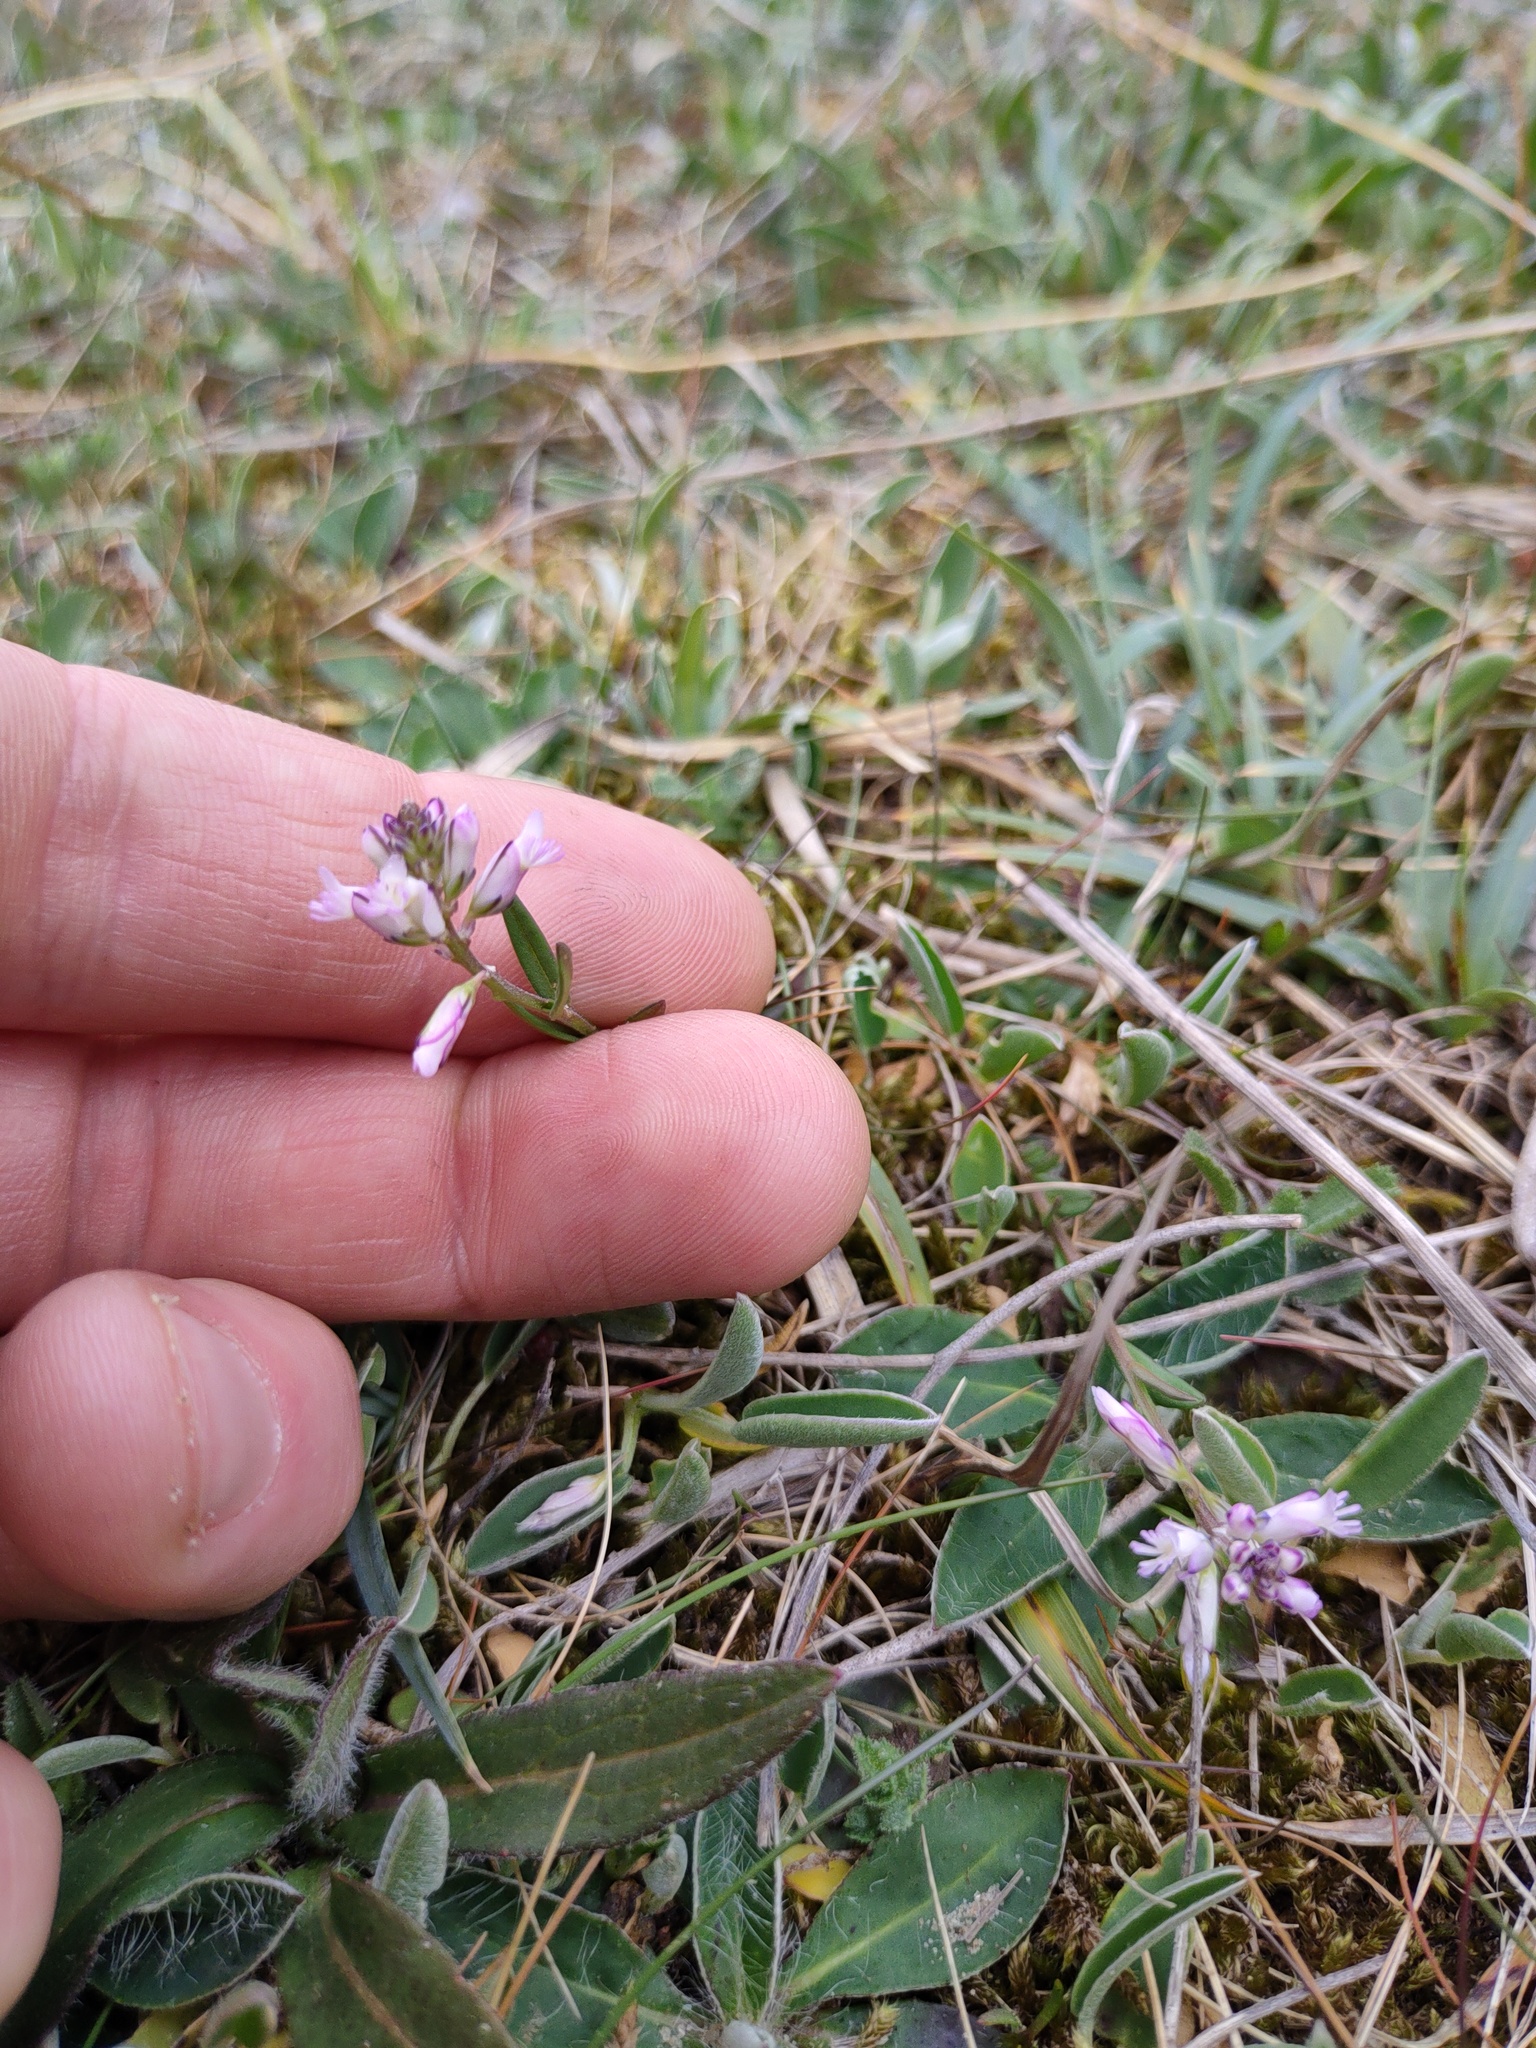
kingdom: Plantae
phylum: Tracheophyta
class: Magnoliopsida
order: Fabales
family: Polygalaceae
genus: Polygala
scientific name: Polygala vulgaris
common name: Common milkwort
